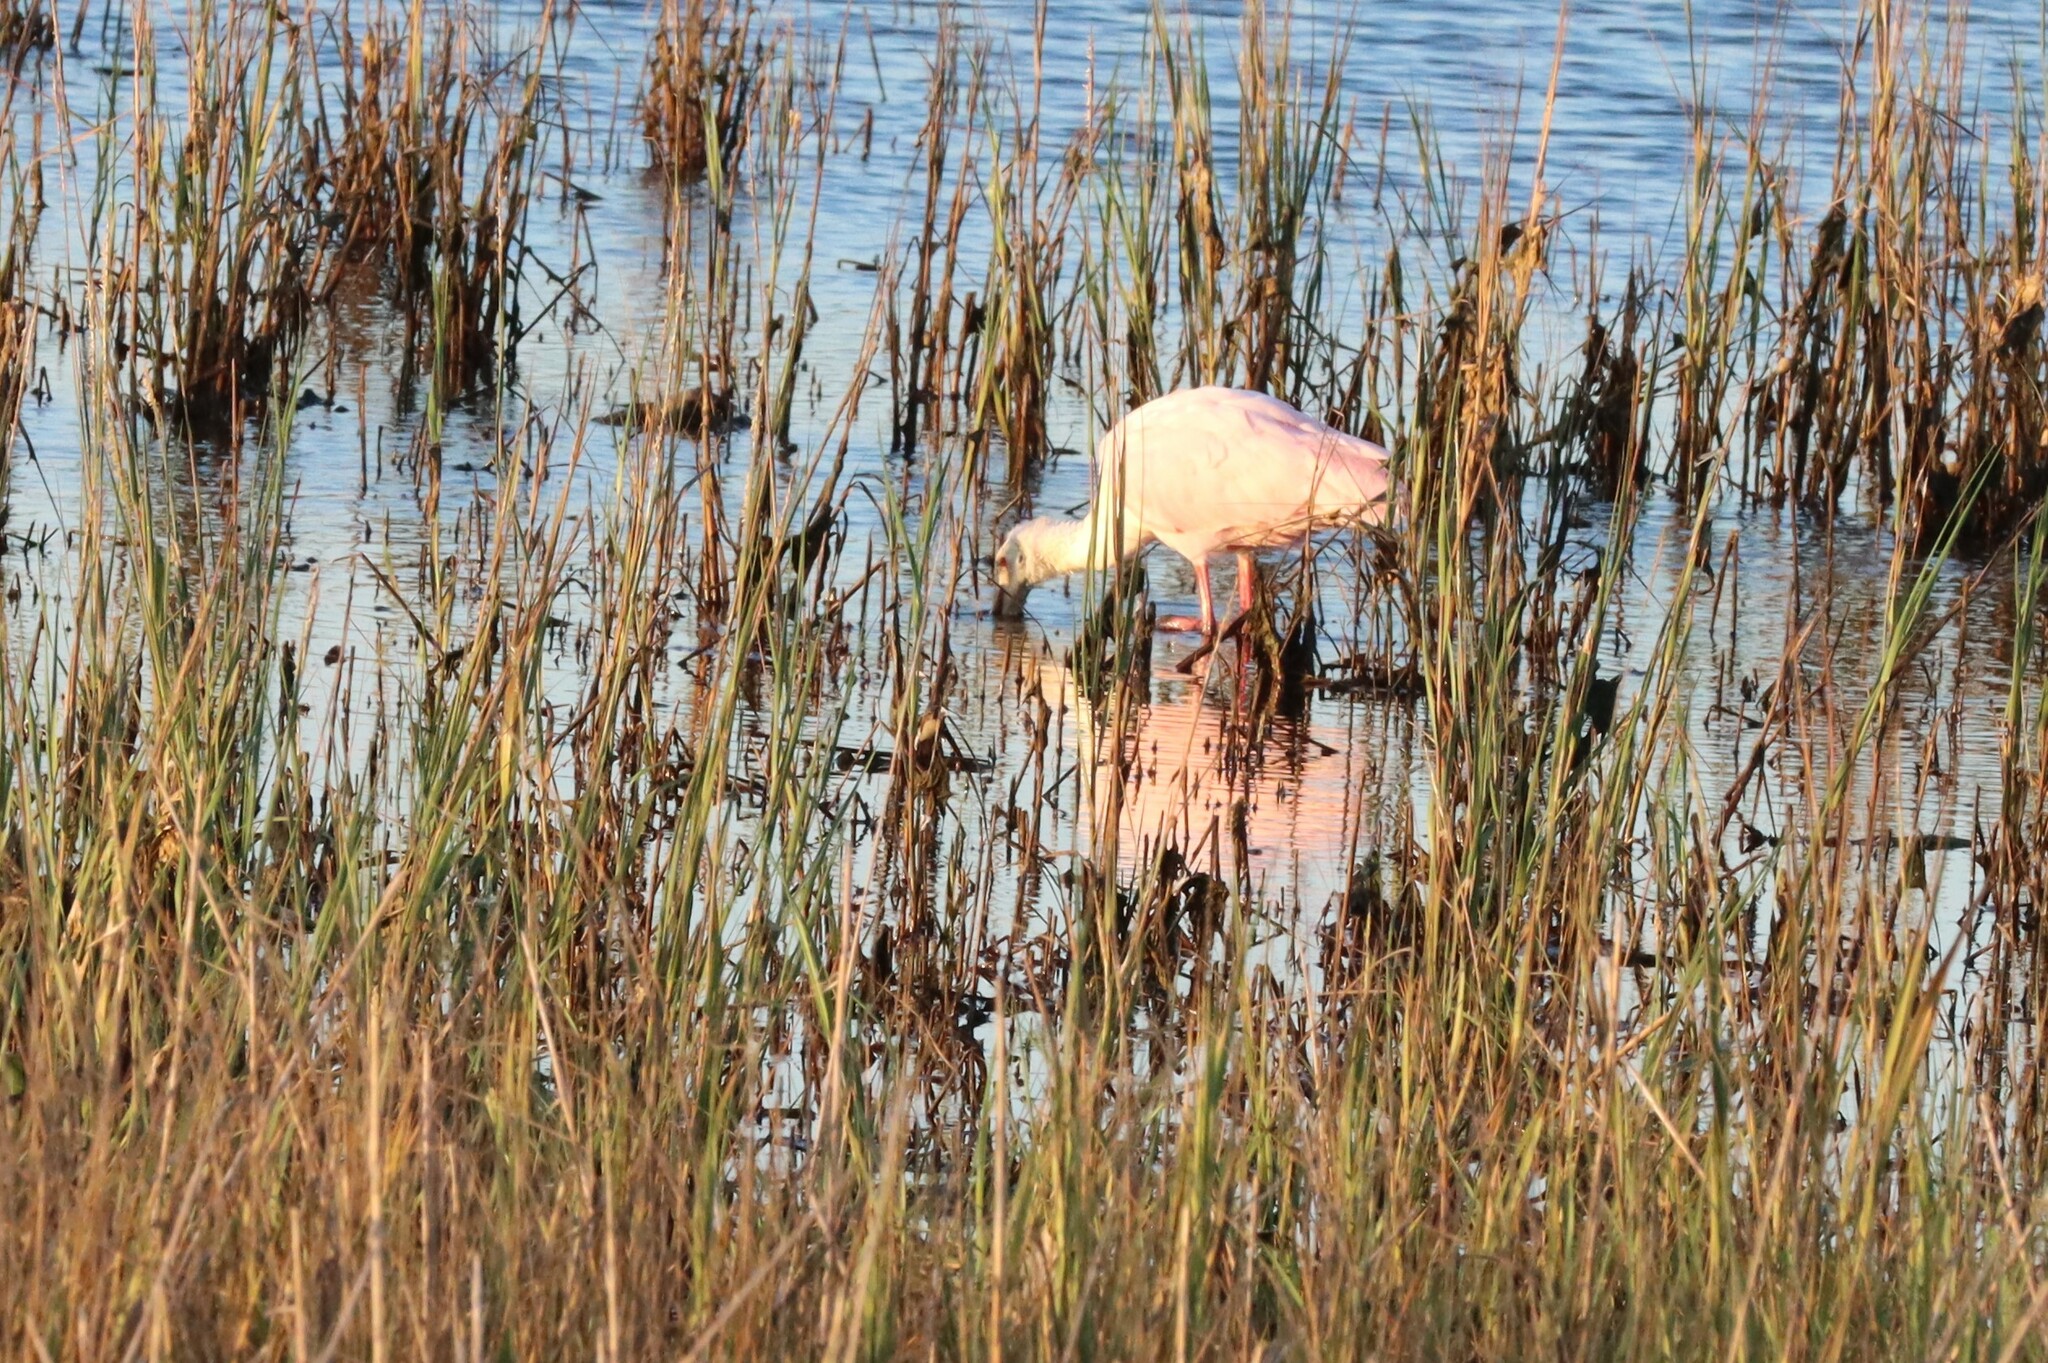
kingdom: Animalia
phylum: Chordata
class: Aves
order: Pelecaniformes
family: Threskiornithidae
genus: Platalea
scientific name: Platalea ajaja
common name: Roseate spoonbill
